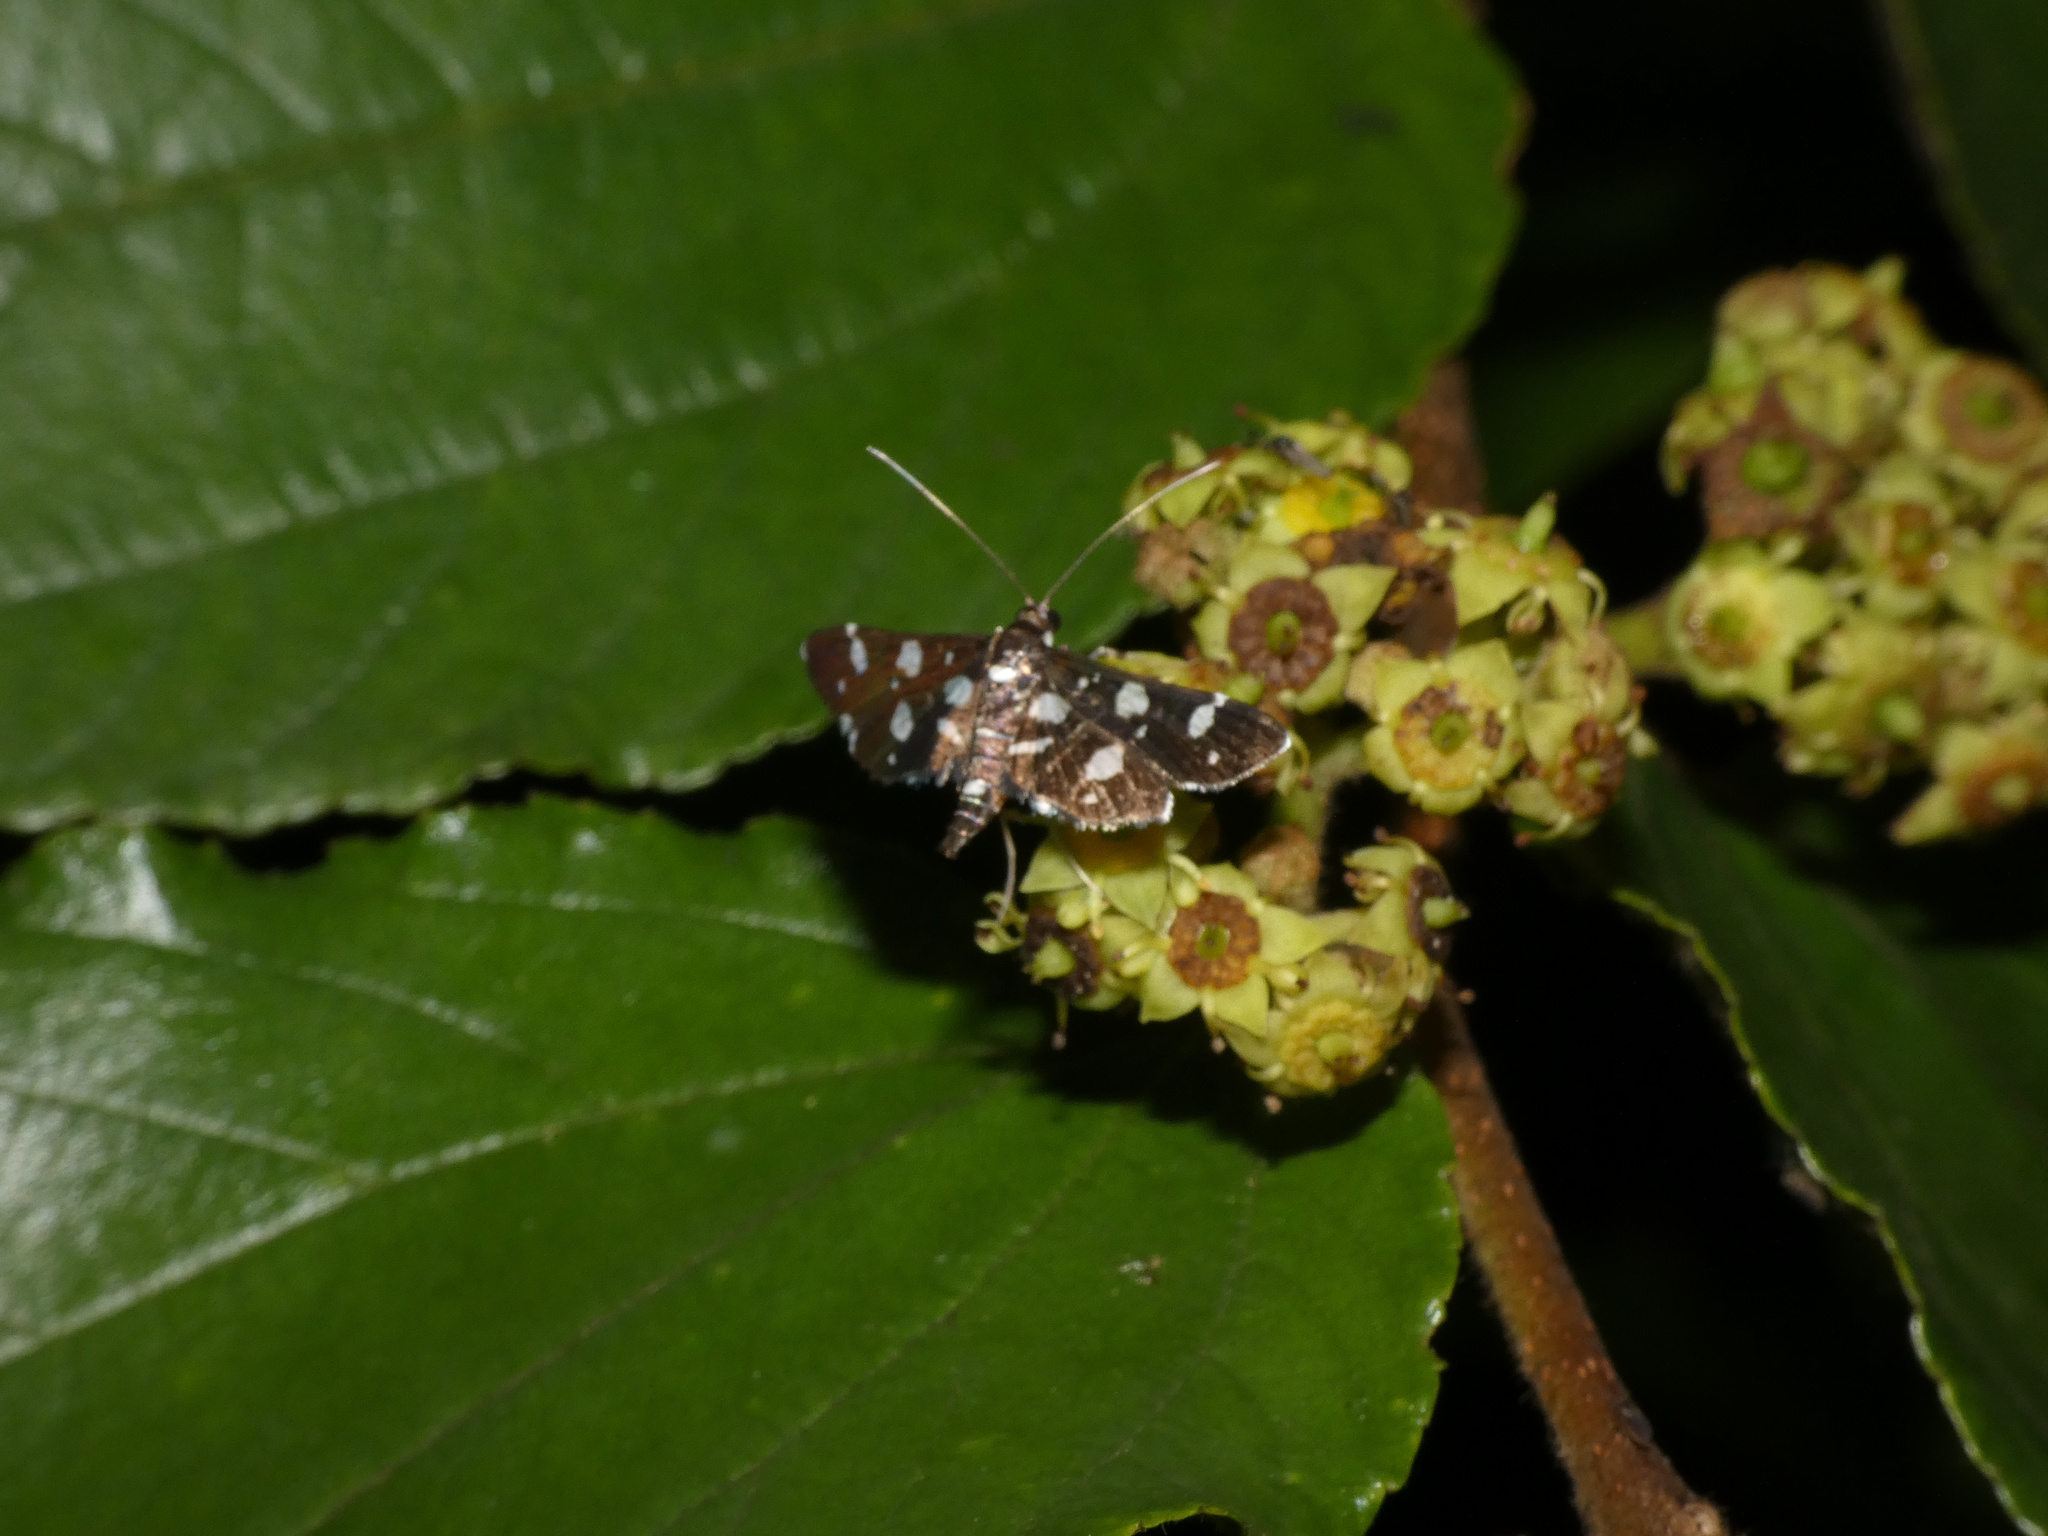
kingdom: Animalia
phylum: Arthropoda
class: Insecta
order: Lepidoptera
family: Crambidae
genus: Bocchoris
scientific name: Bocchoris inspersalis
